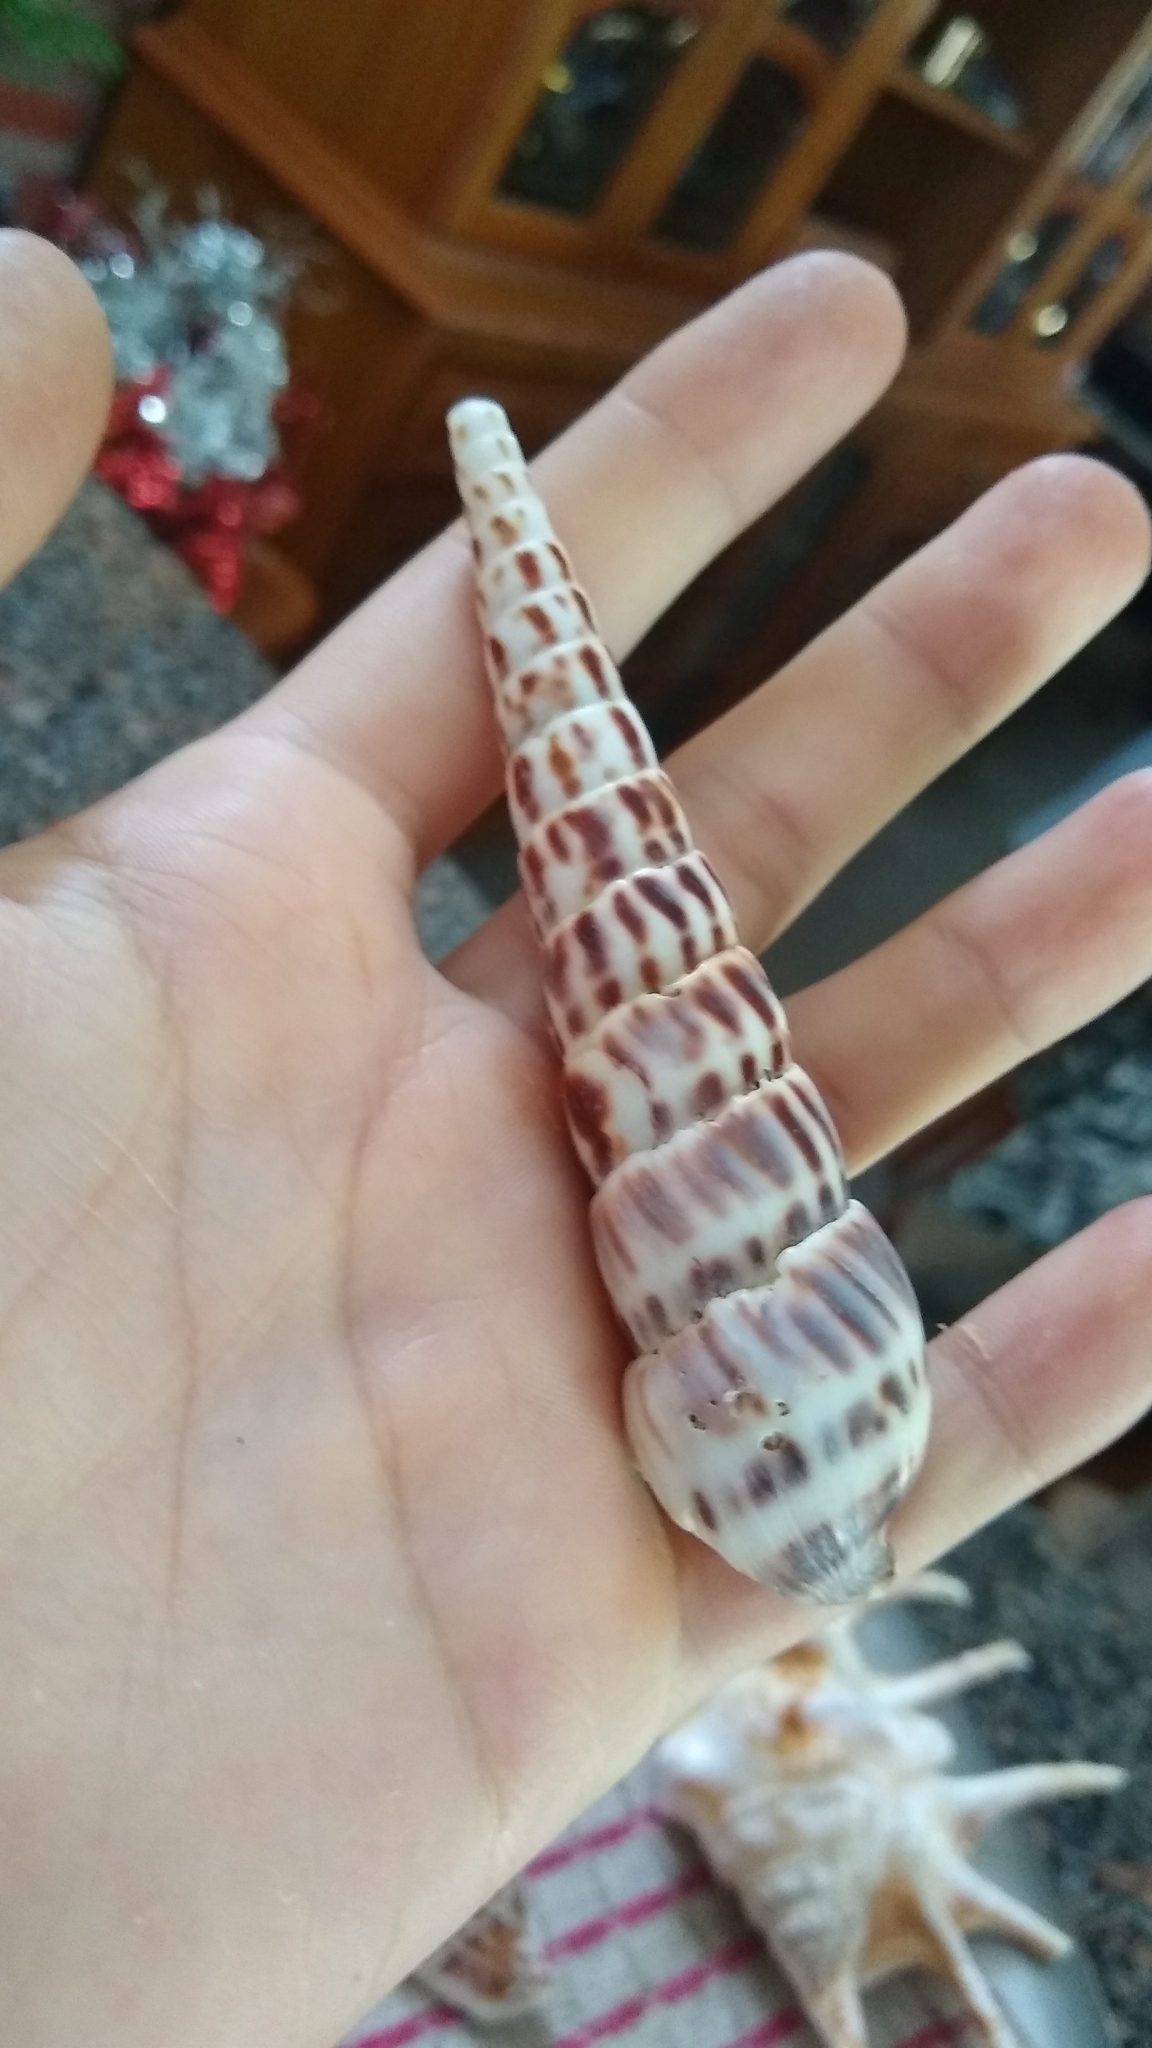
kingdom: Animalia
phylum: Mollusca
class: Gastropoda
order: Neogastropoda
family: Terebridae
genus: Terebra
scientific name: Terebra robusta
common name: Robust auger
